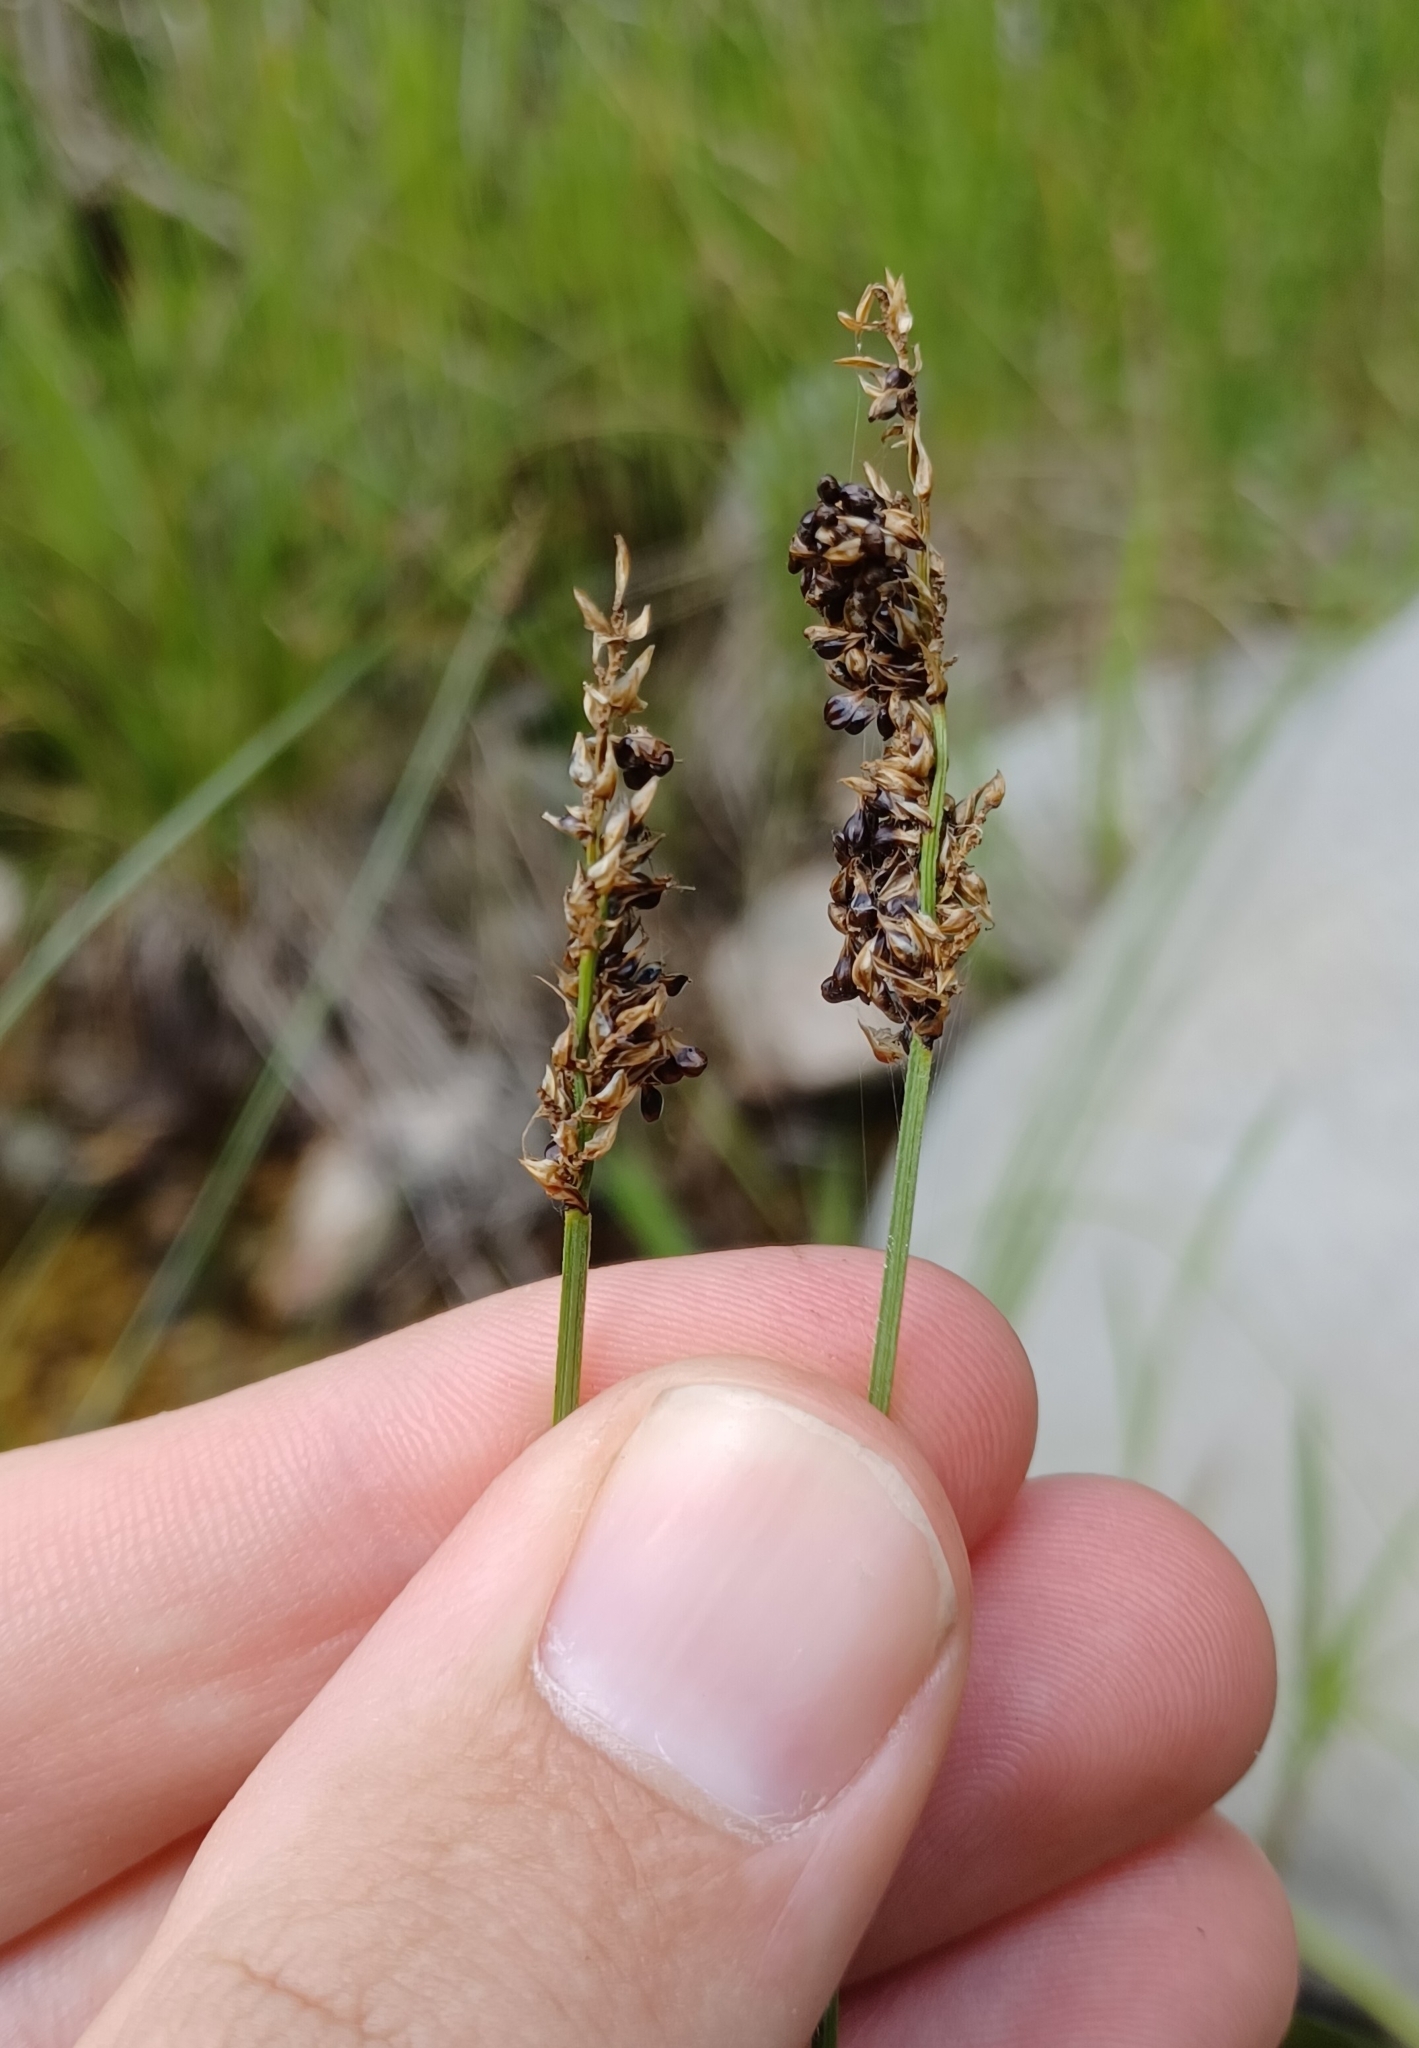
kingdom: Plantae
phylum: Tracheophyta
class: Liliopsida
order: Poales
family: Cyperaceae
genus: Carex
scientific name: Carex diandra
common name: Lesser tussock-sedge
